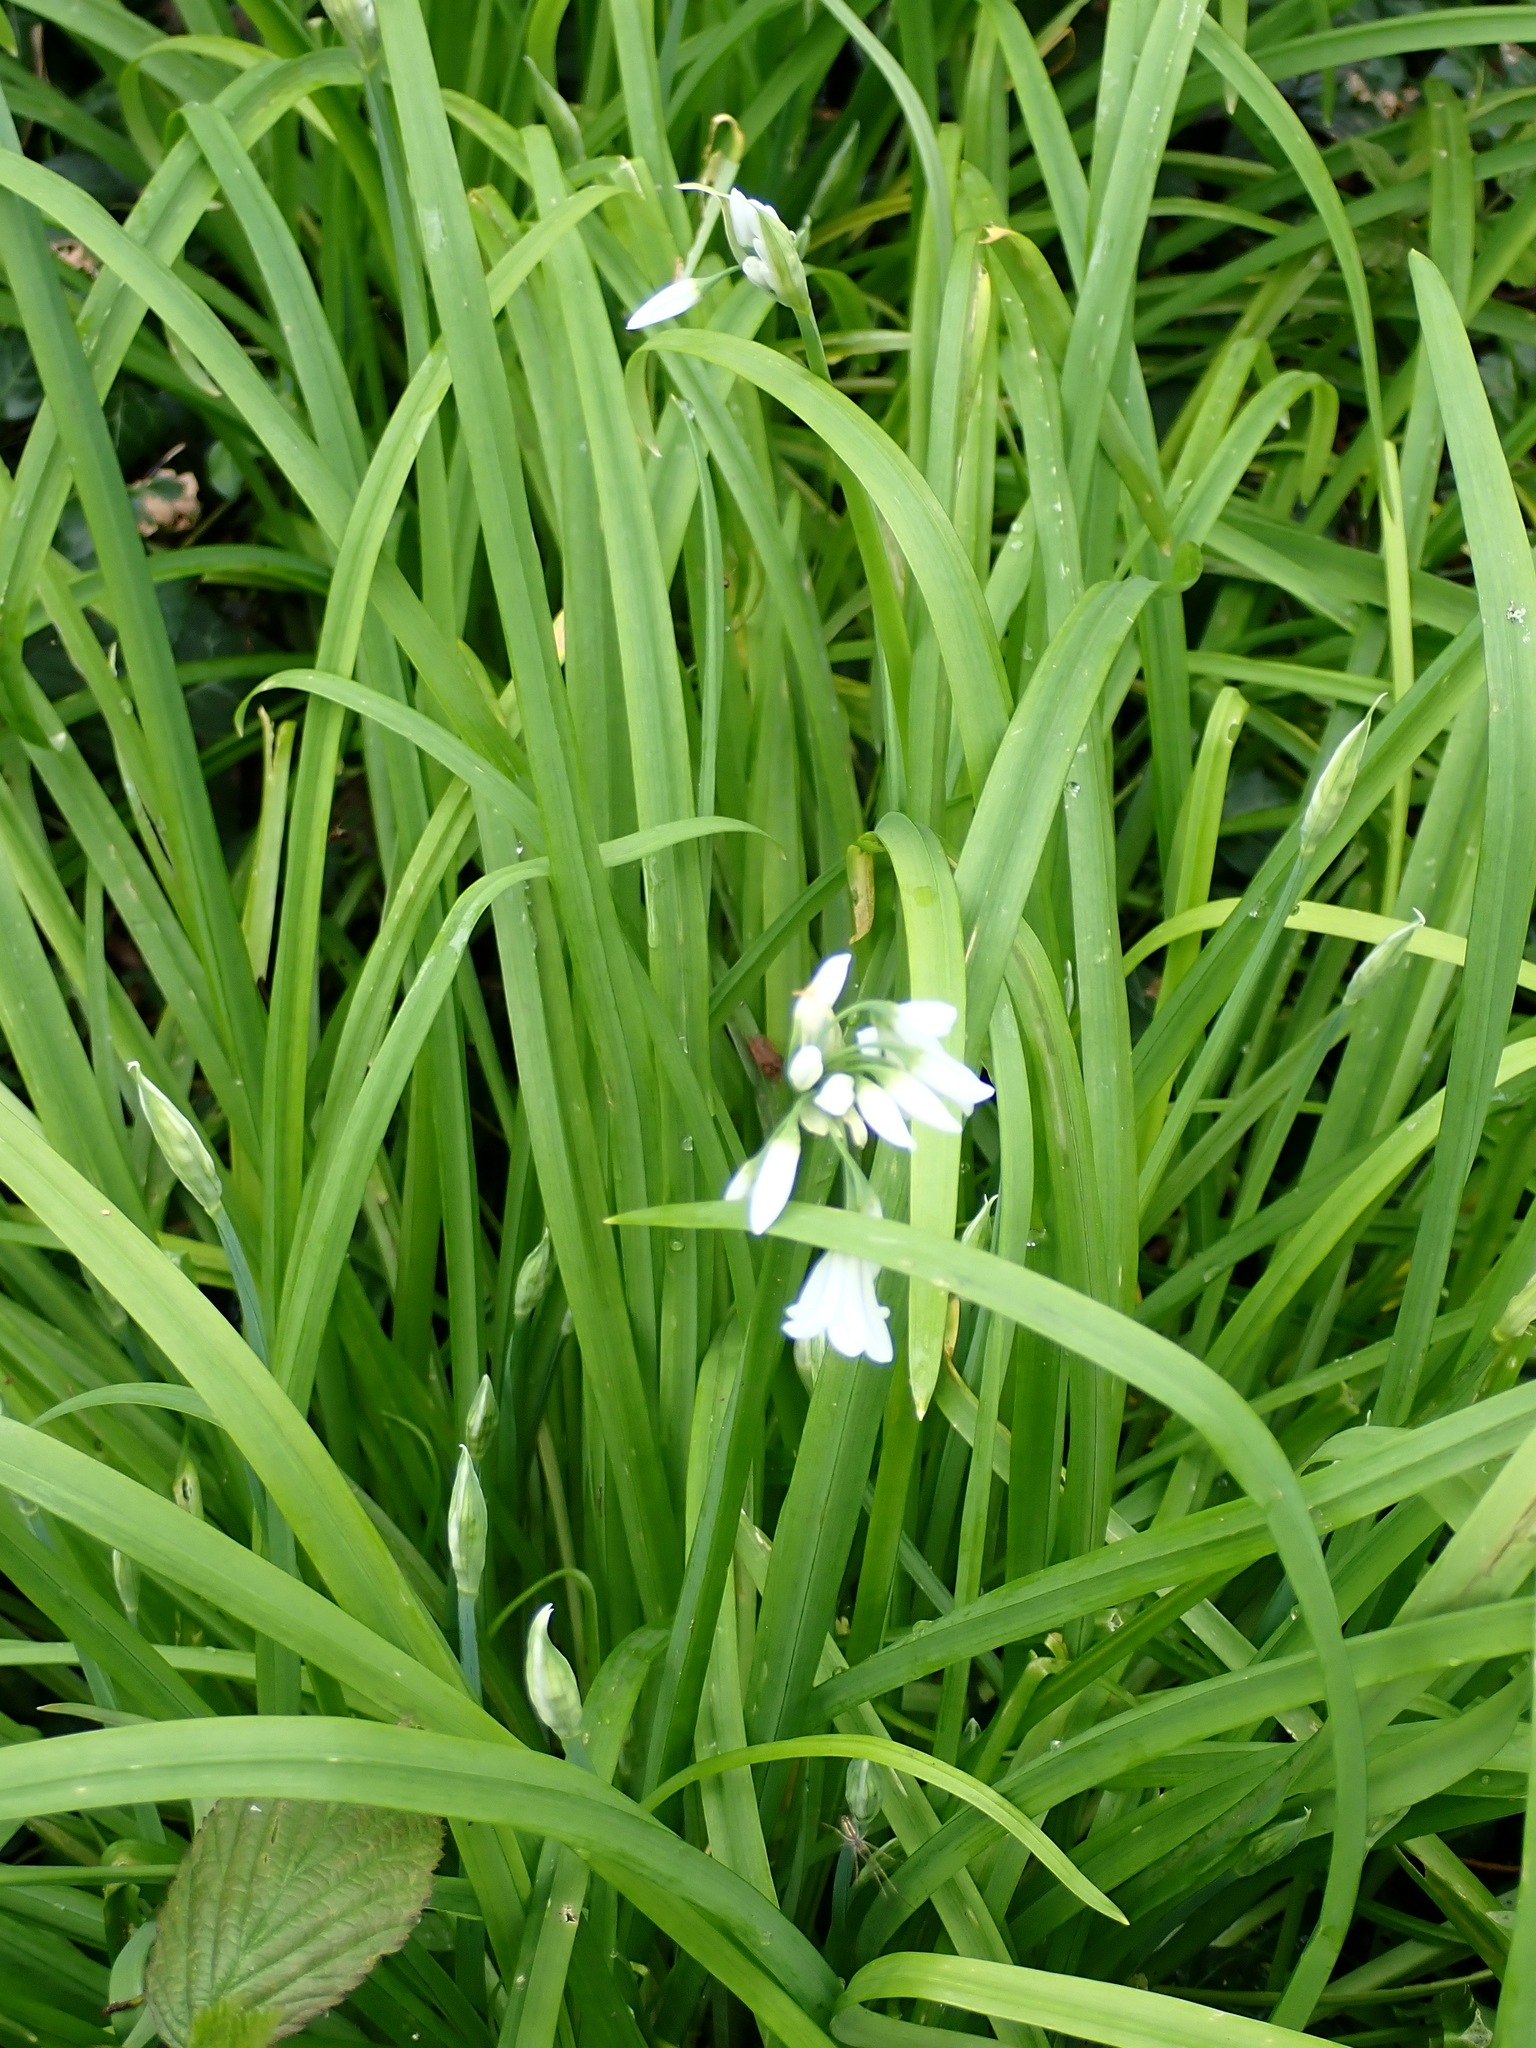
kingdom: Plantae
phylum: Tracheophyta
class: Liliopsida
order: Asparagales
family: Amaryllidaceae
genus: Allium
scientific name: Allium triquetrum
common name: Three-cornered garlic
